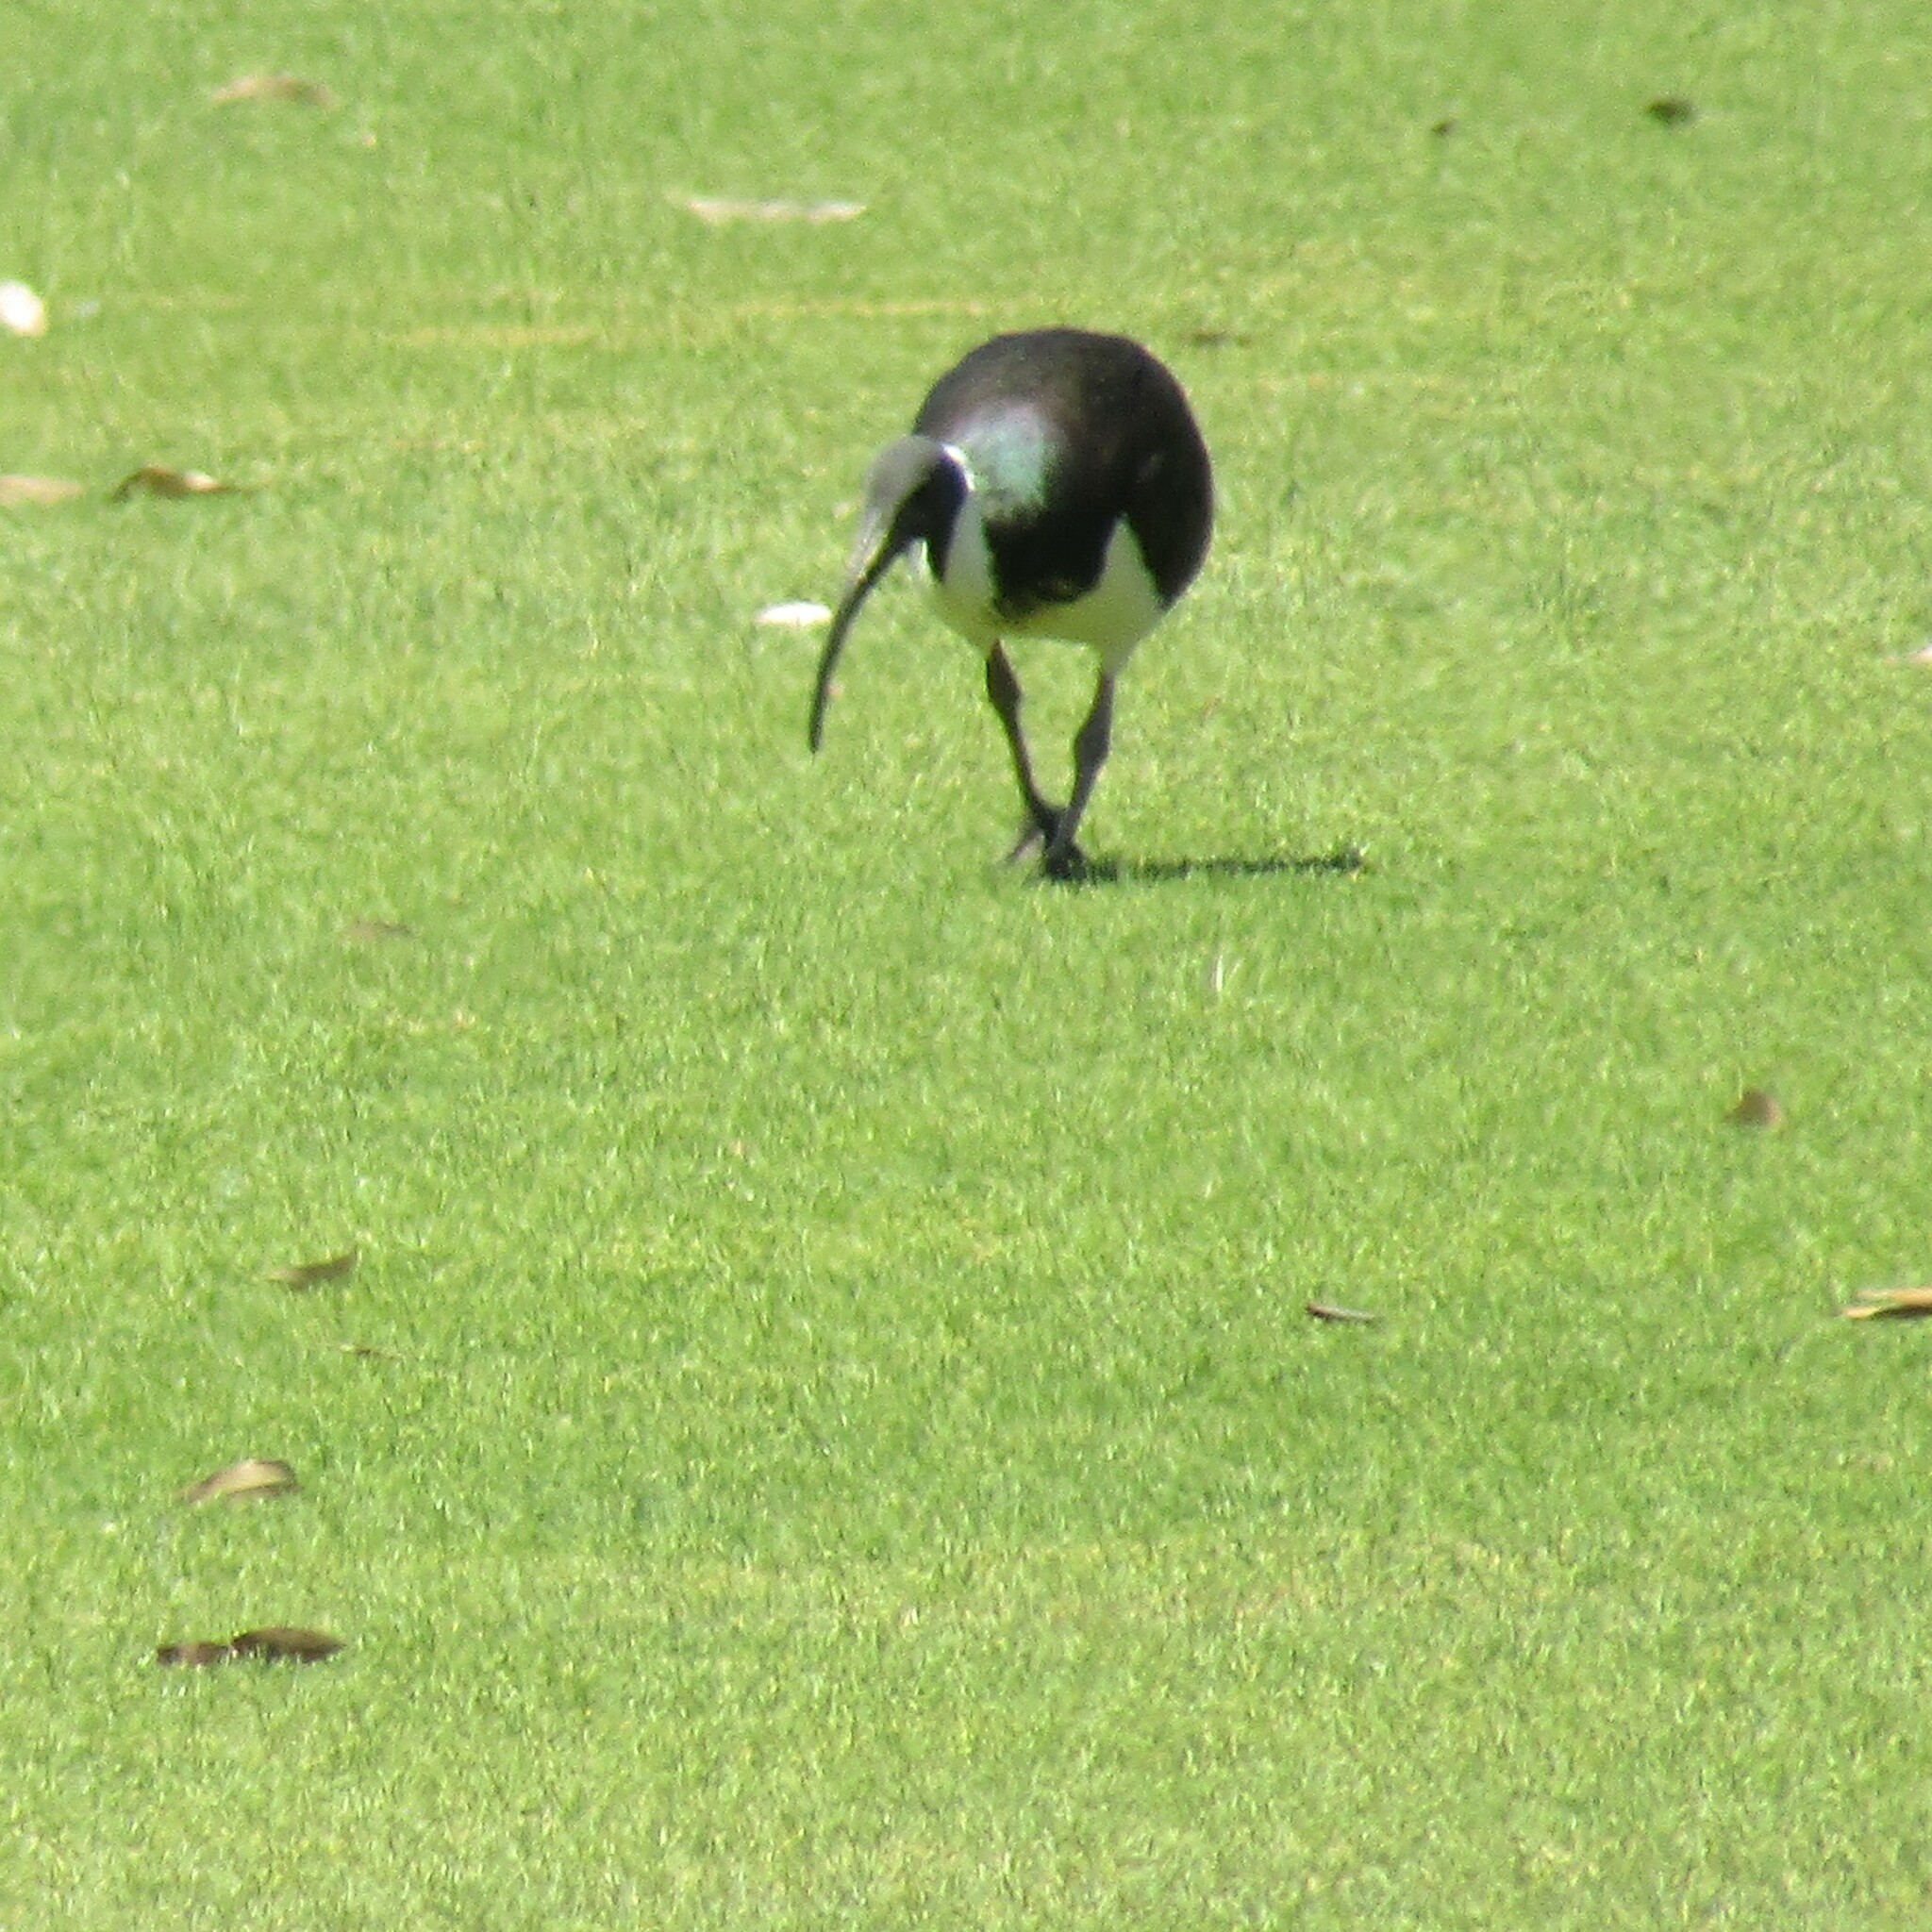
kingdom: Animalia
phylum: Chordata
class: Aves
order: Pelecaniformes
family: Threskiornithidae
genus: Threskiornis
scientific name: Threskiornis spinicollis
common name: Straw-necked ibis
